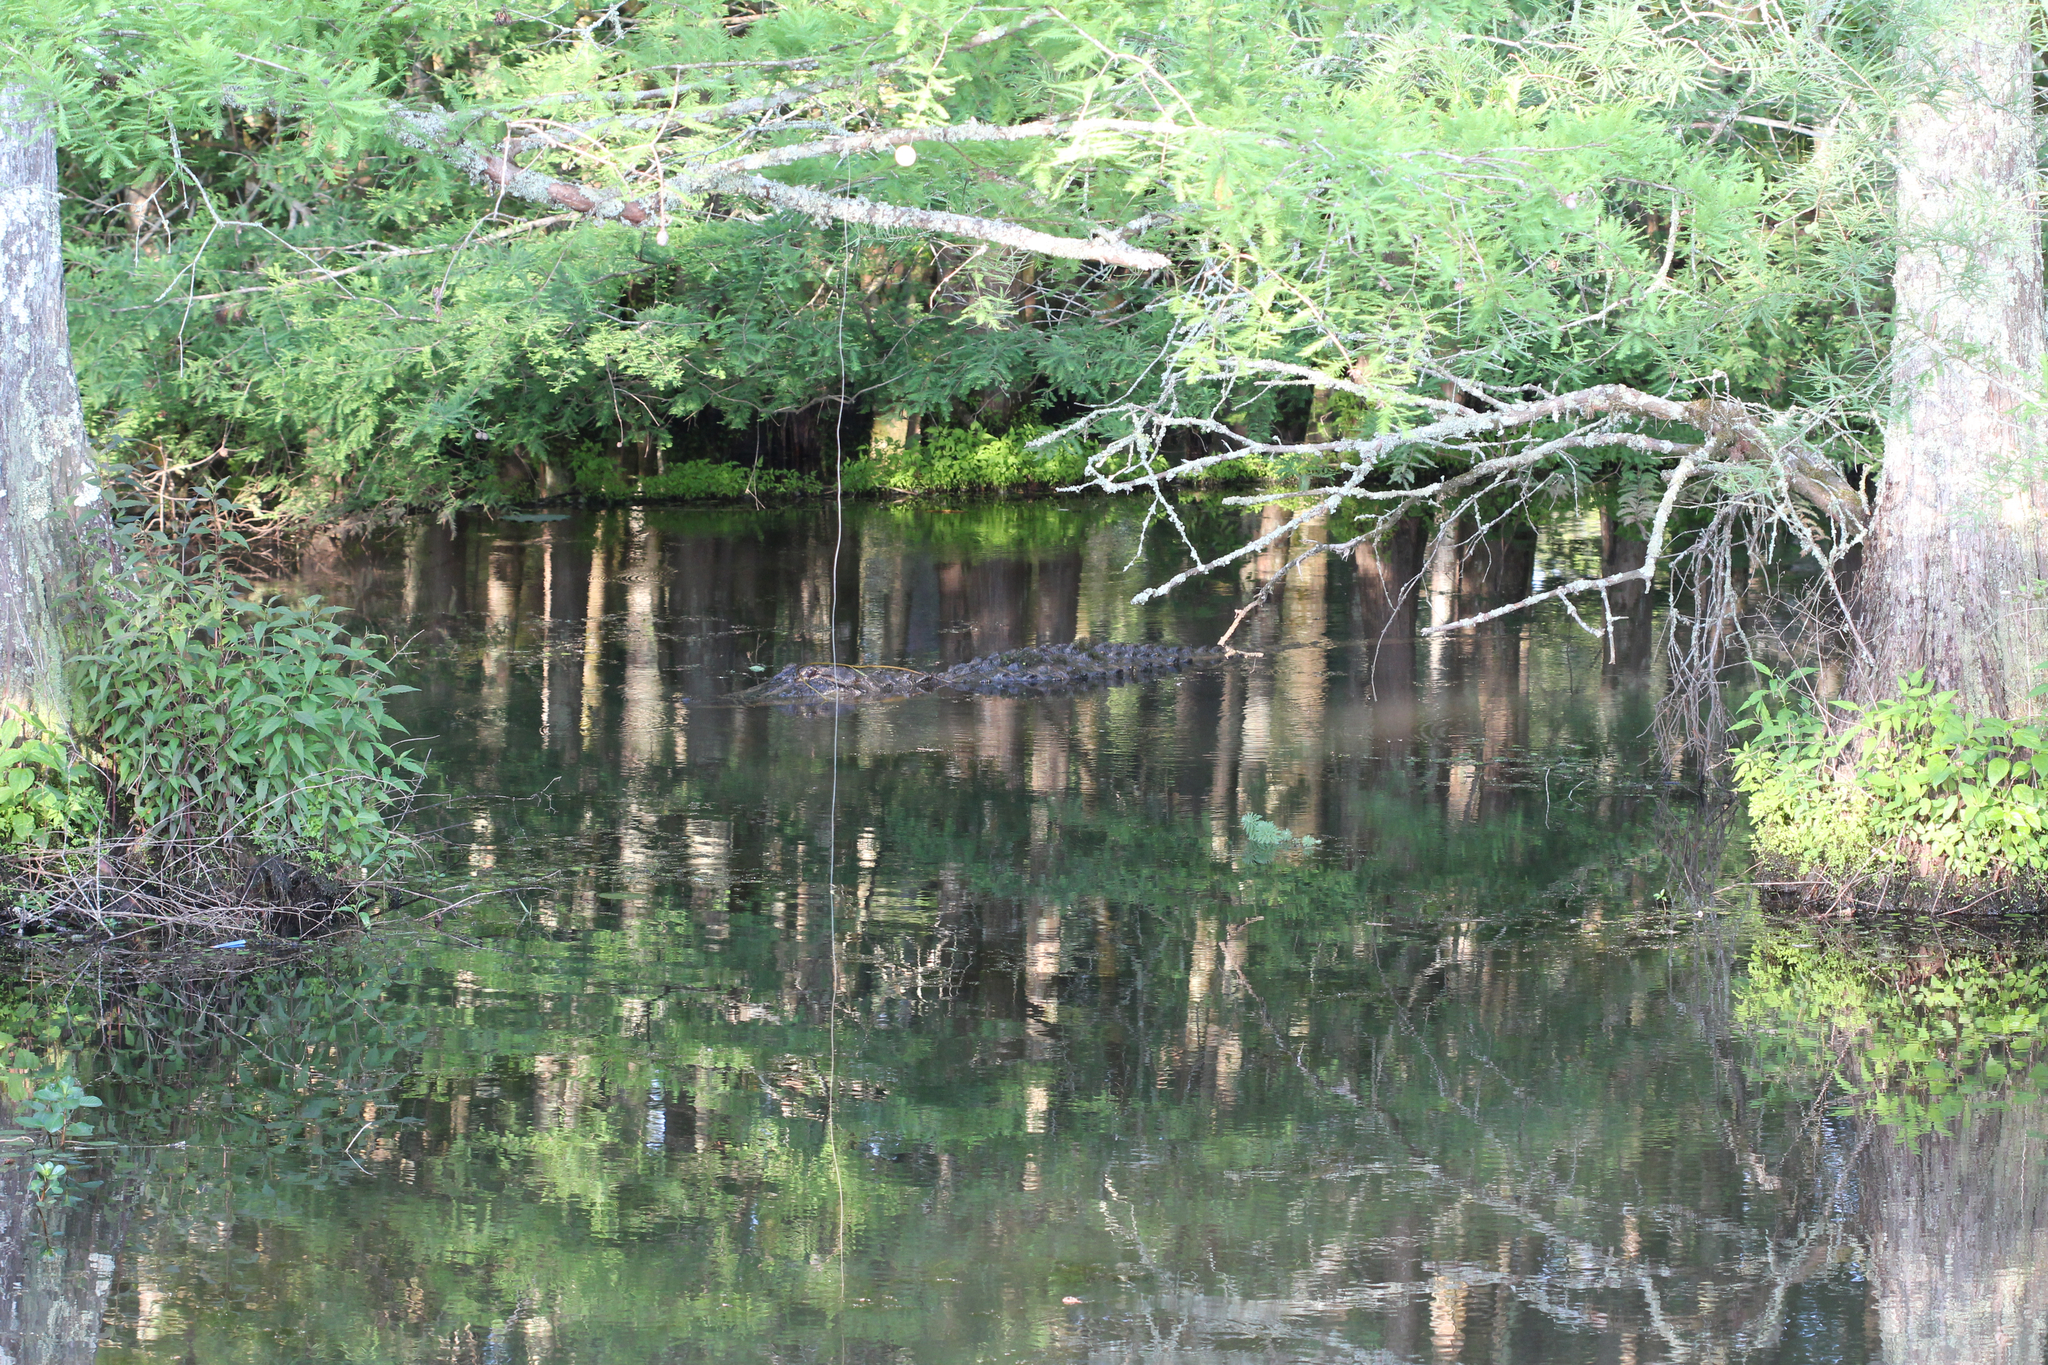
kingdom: Animalia
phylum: Chordata
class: Crocodylia
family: Alligatoridae
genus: Alligator
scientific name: Alligator mississippiensis
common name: American alligator
